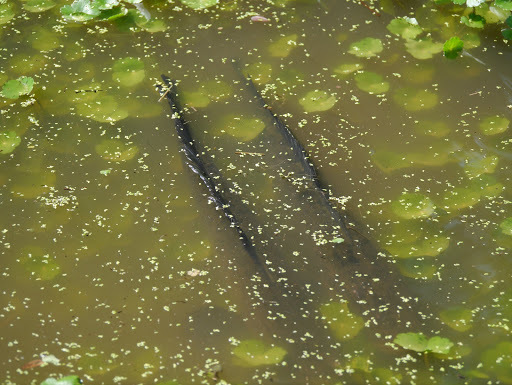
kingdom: Animalia
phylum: Chordata
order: Perciformes
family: Channidae
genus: Channa
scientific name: Channa argus
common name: Northern snakehead
